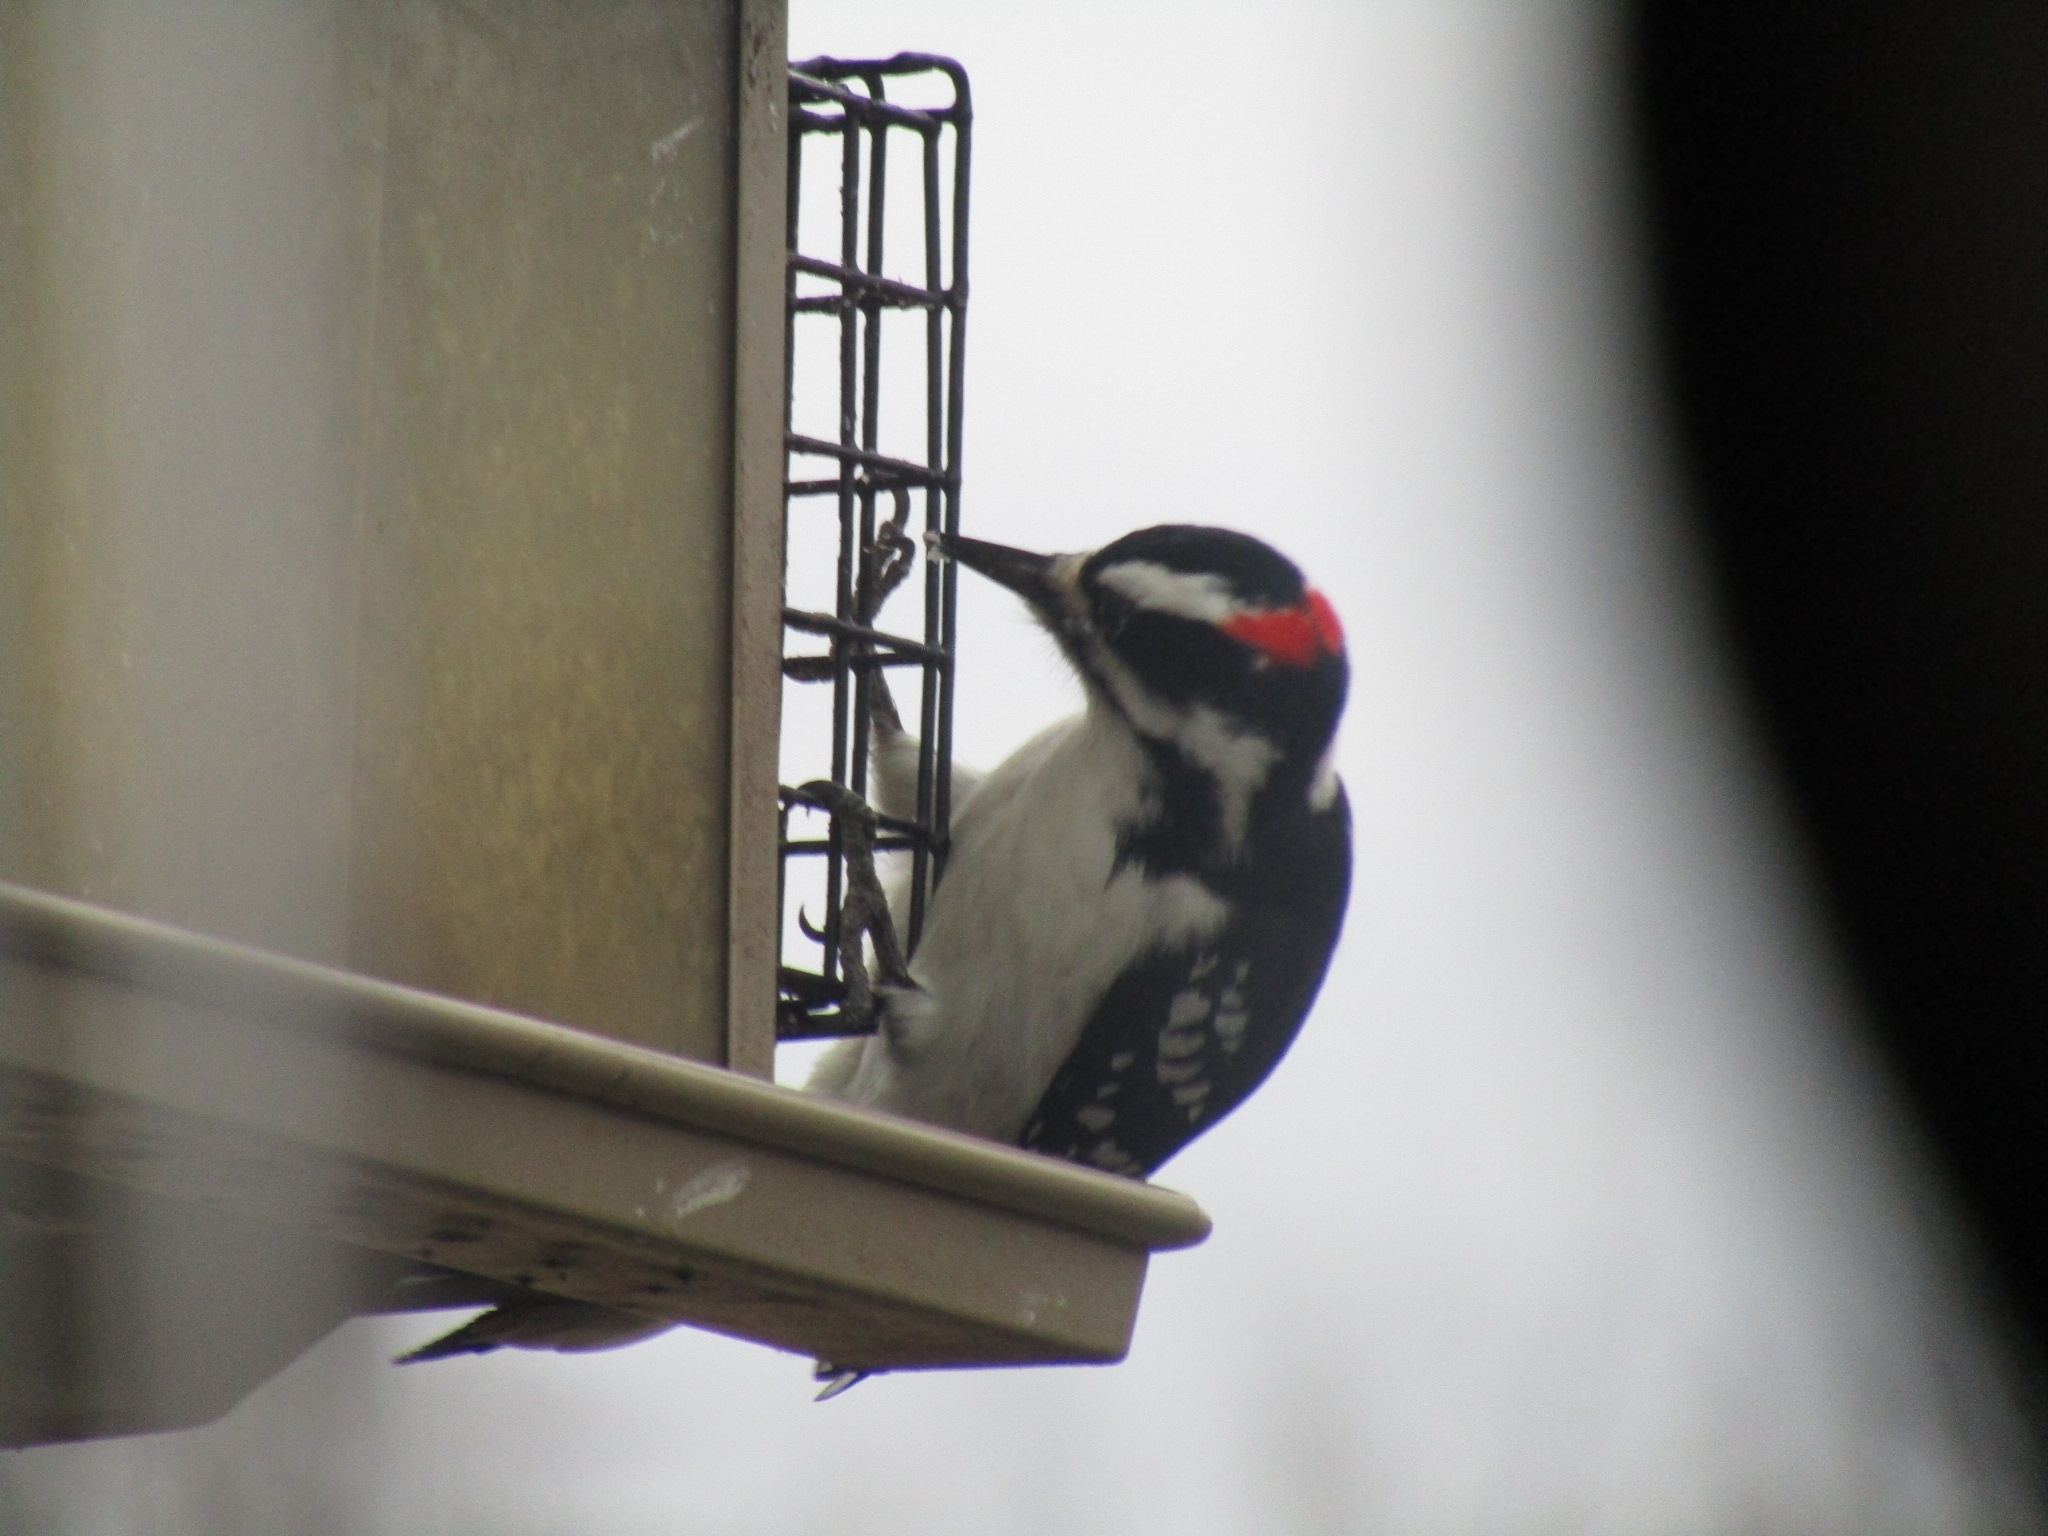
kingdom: Animalia
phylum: Chordata
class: Aves
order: Piciformes
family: Picidae
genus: Leuconotopicus
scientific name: Leuconotopicus villosus
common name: Hairy woodpecker
